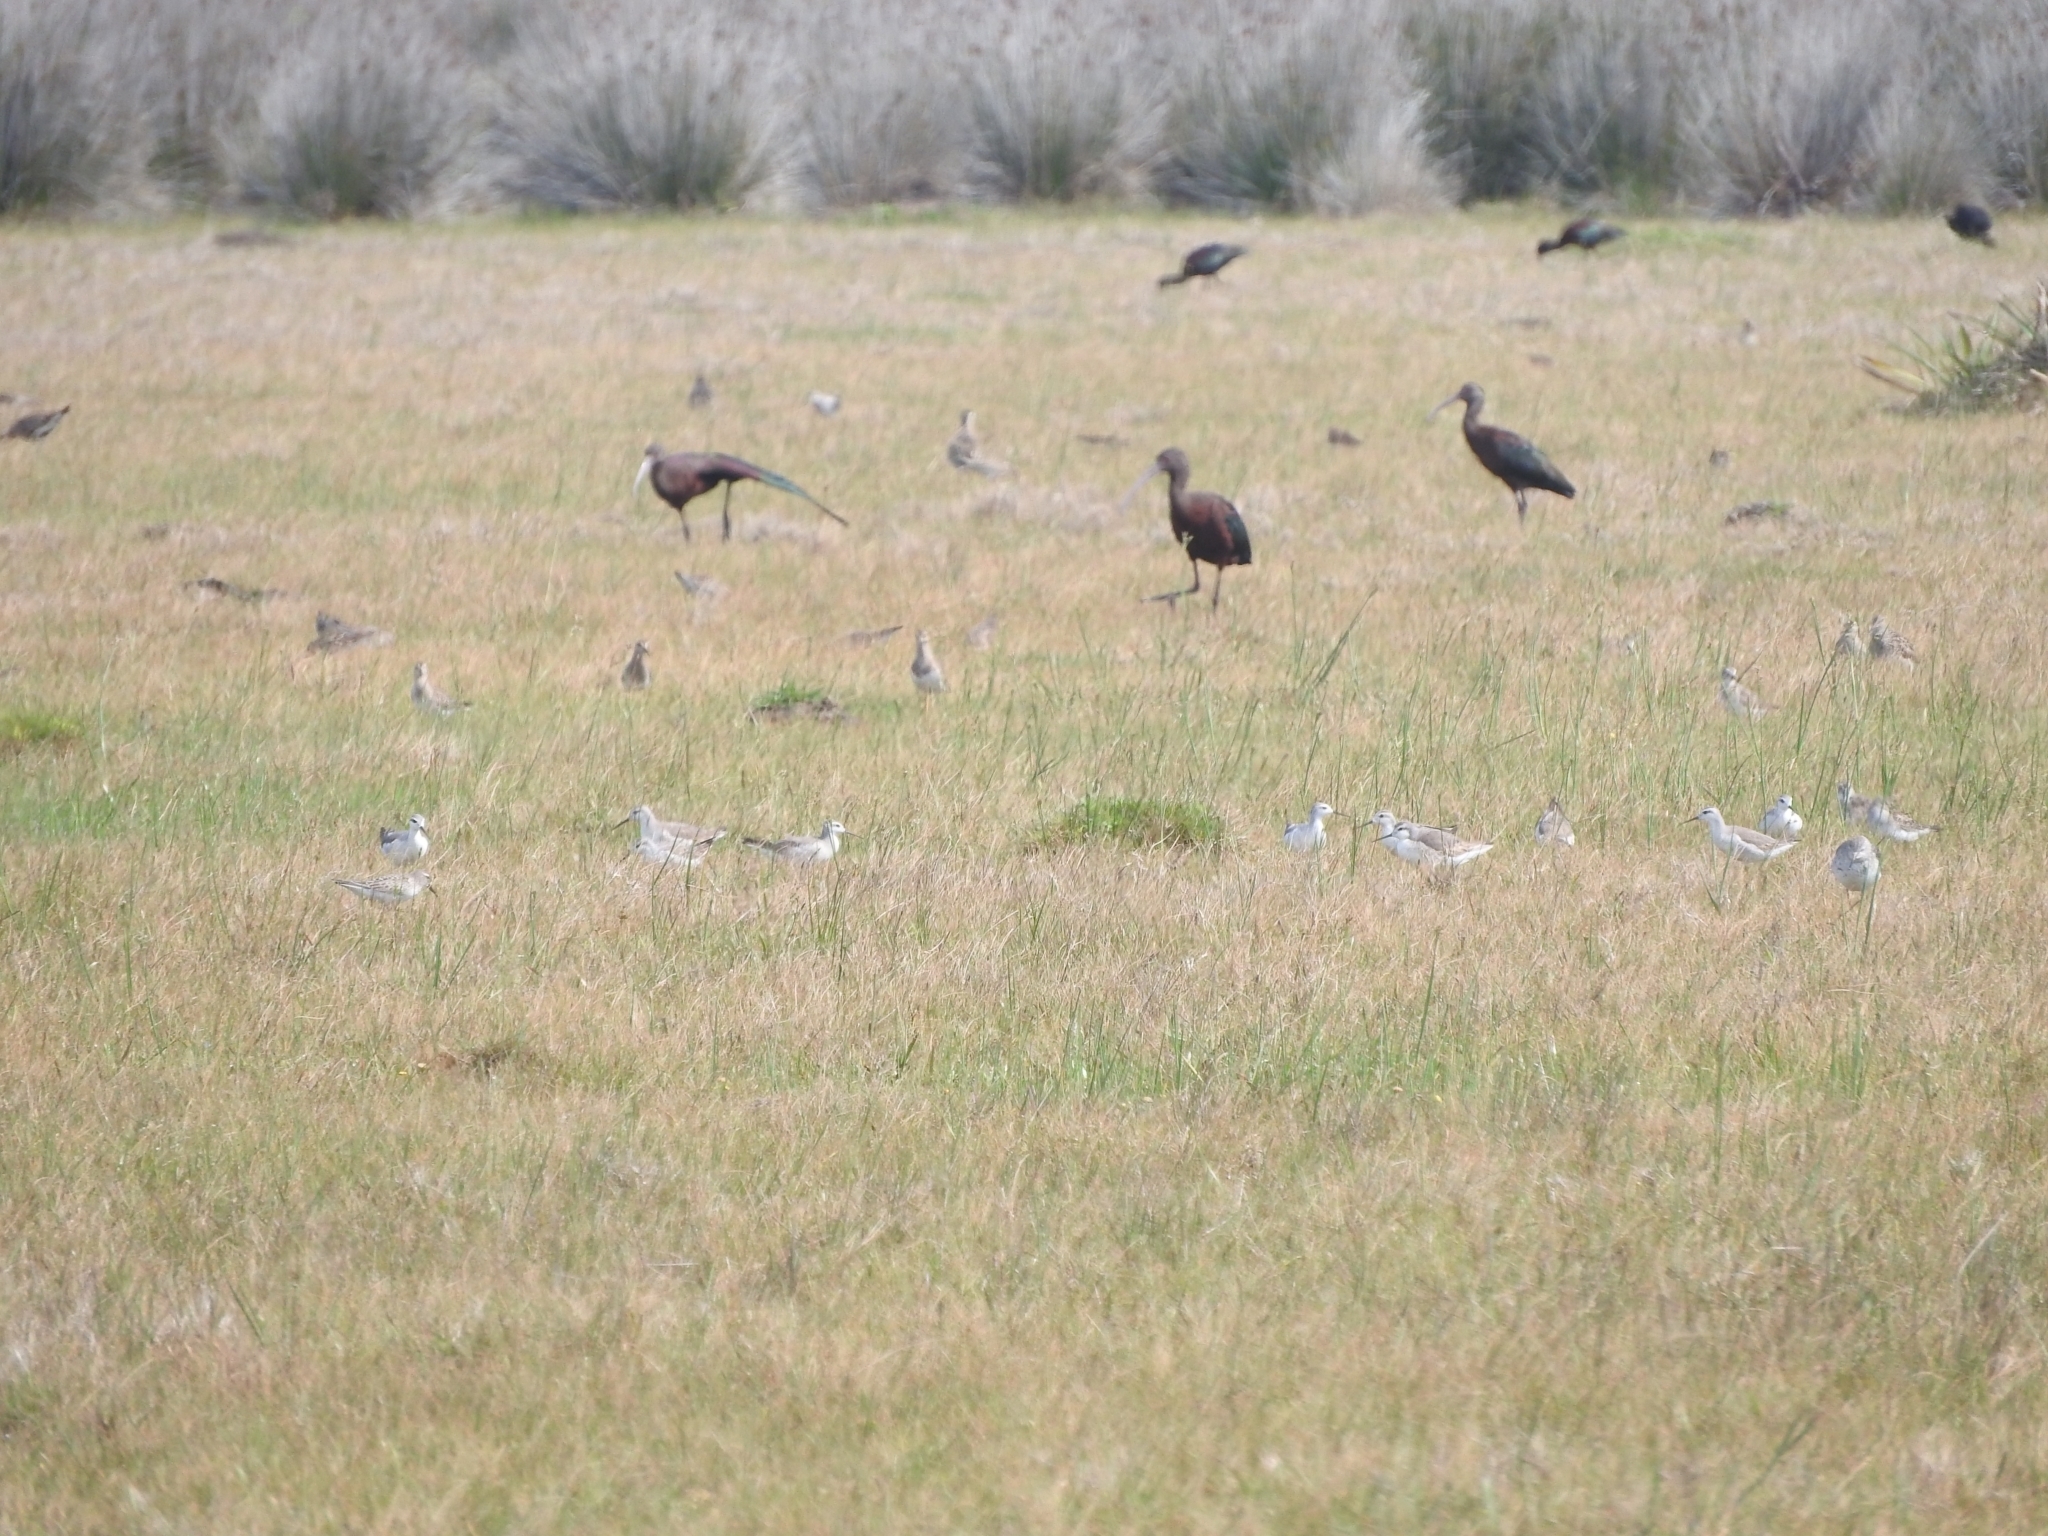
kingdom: Animalia
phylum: Chordata
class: Aves
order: Charadriiformes
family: Scolopacidae
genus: Phalaropus
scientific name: Phalaropus tricolor
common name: Wilson's phalarope
